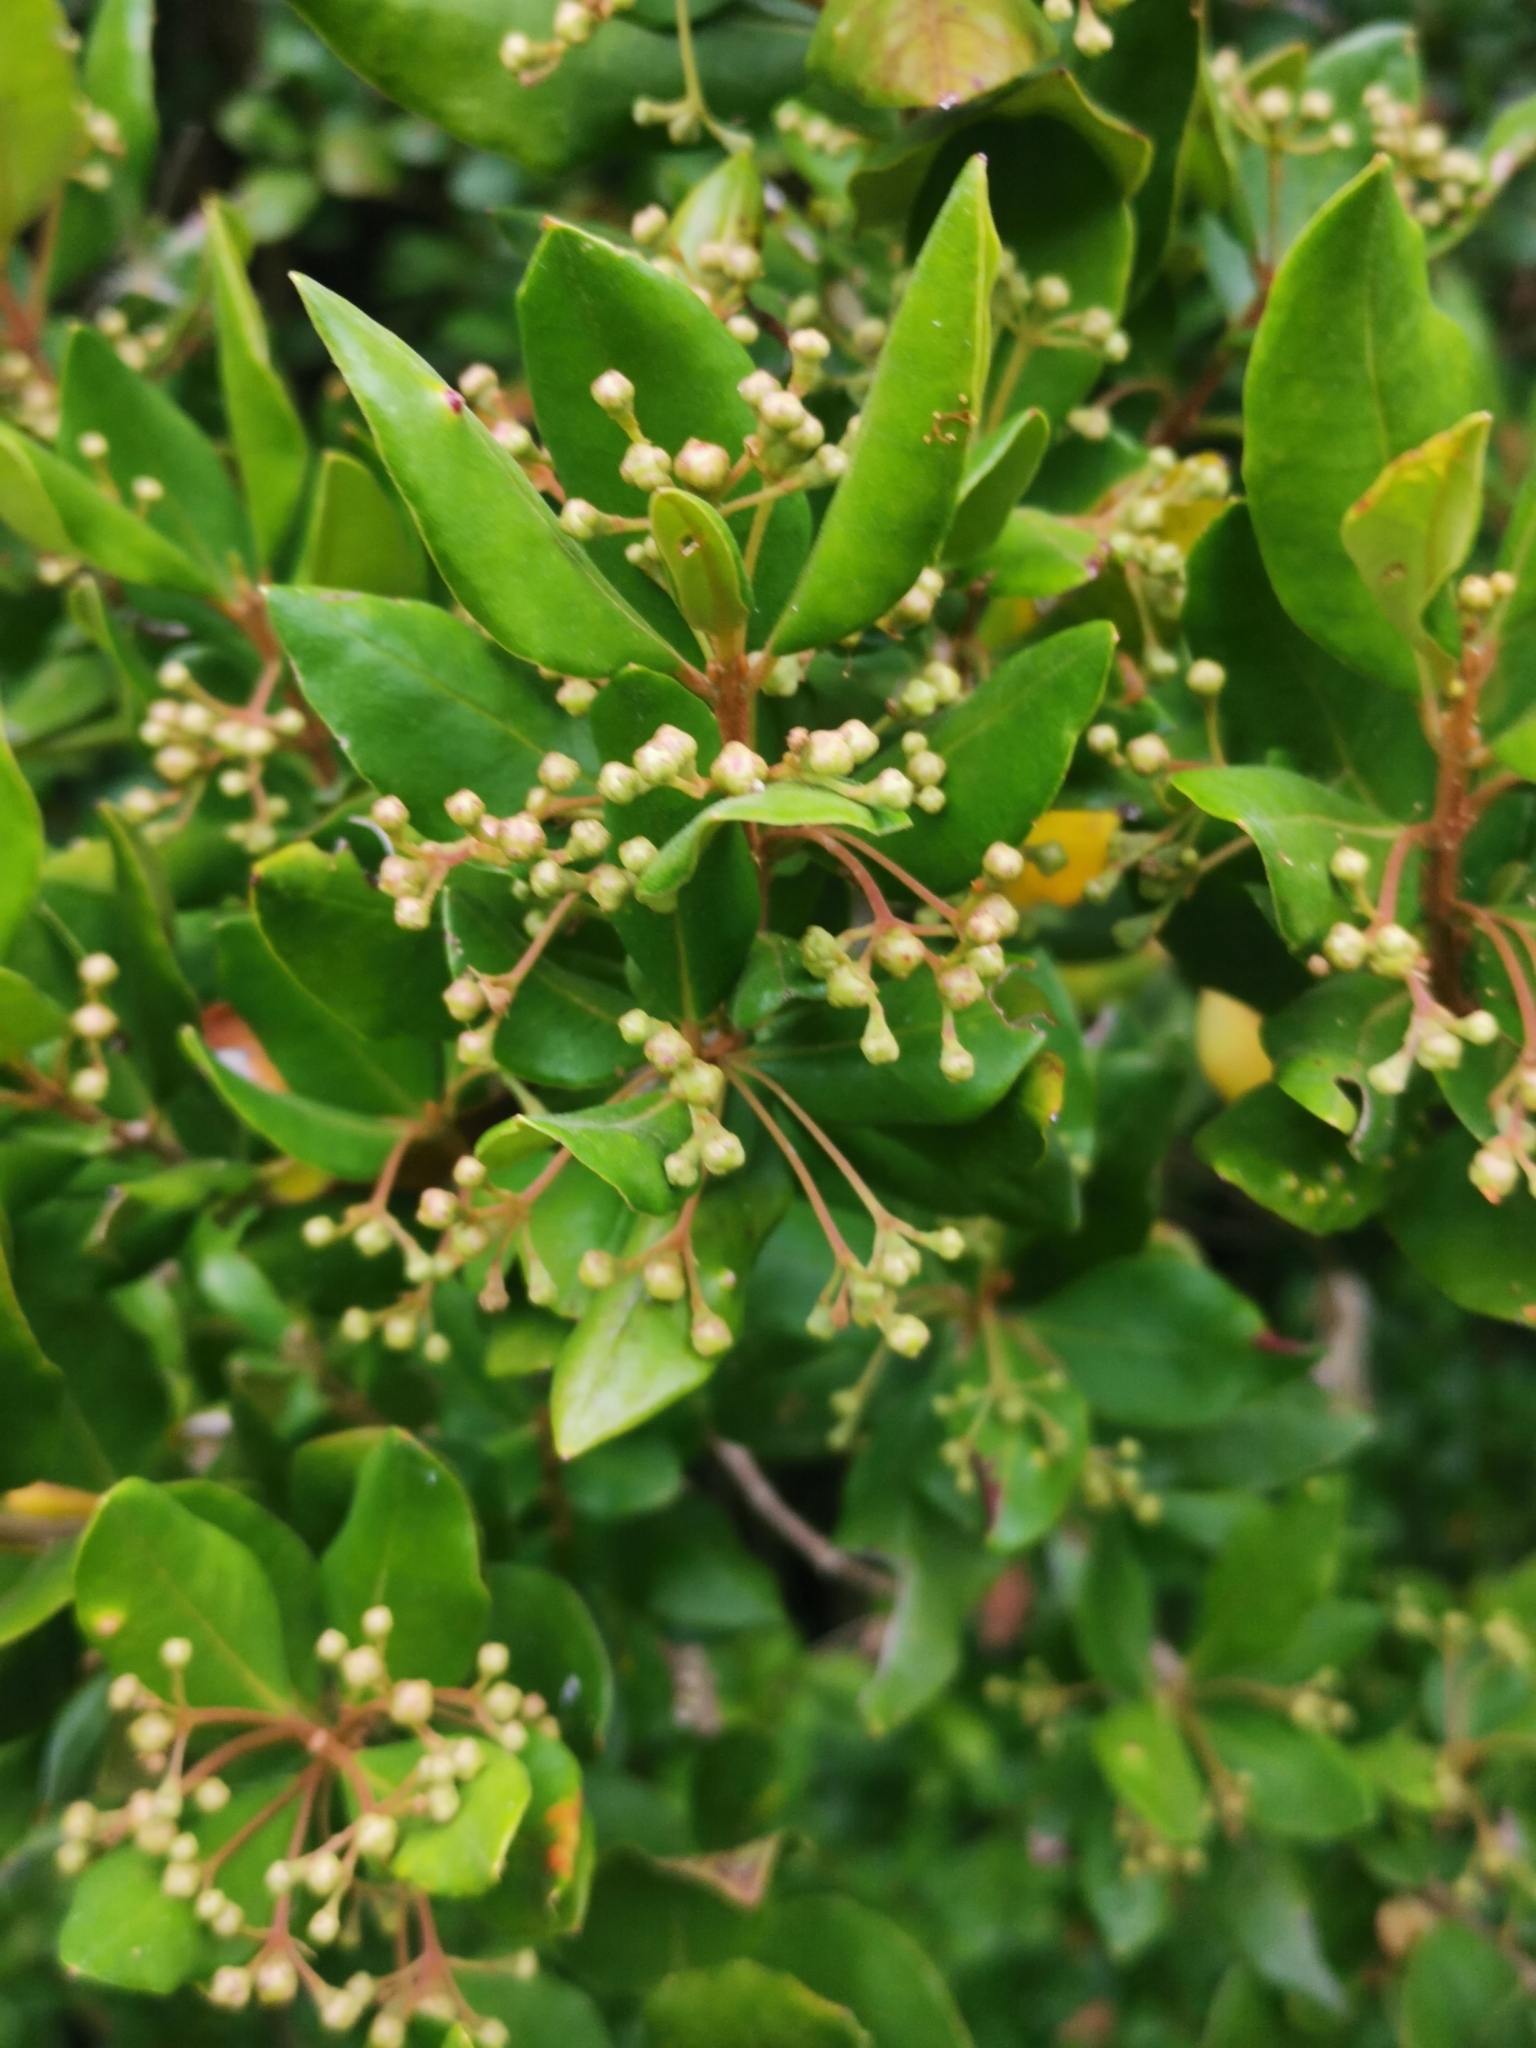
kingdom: Plantae
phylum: Tracheophyta
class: Magnoliopsida
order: Myrtales
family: Myrtaceae
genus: Myrceugenia
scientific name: Myrceugenia exsucca
